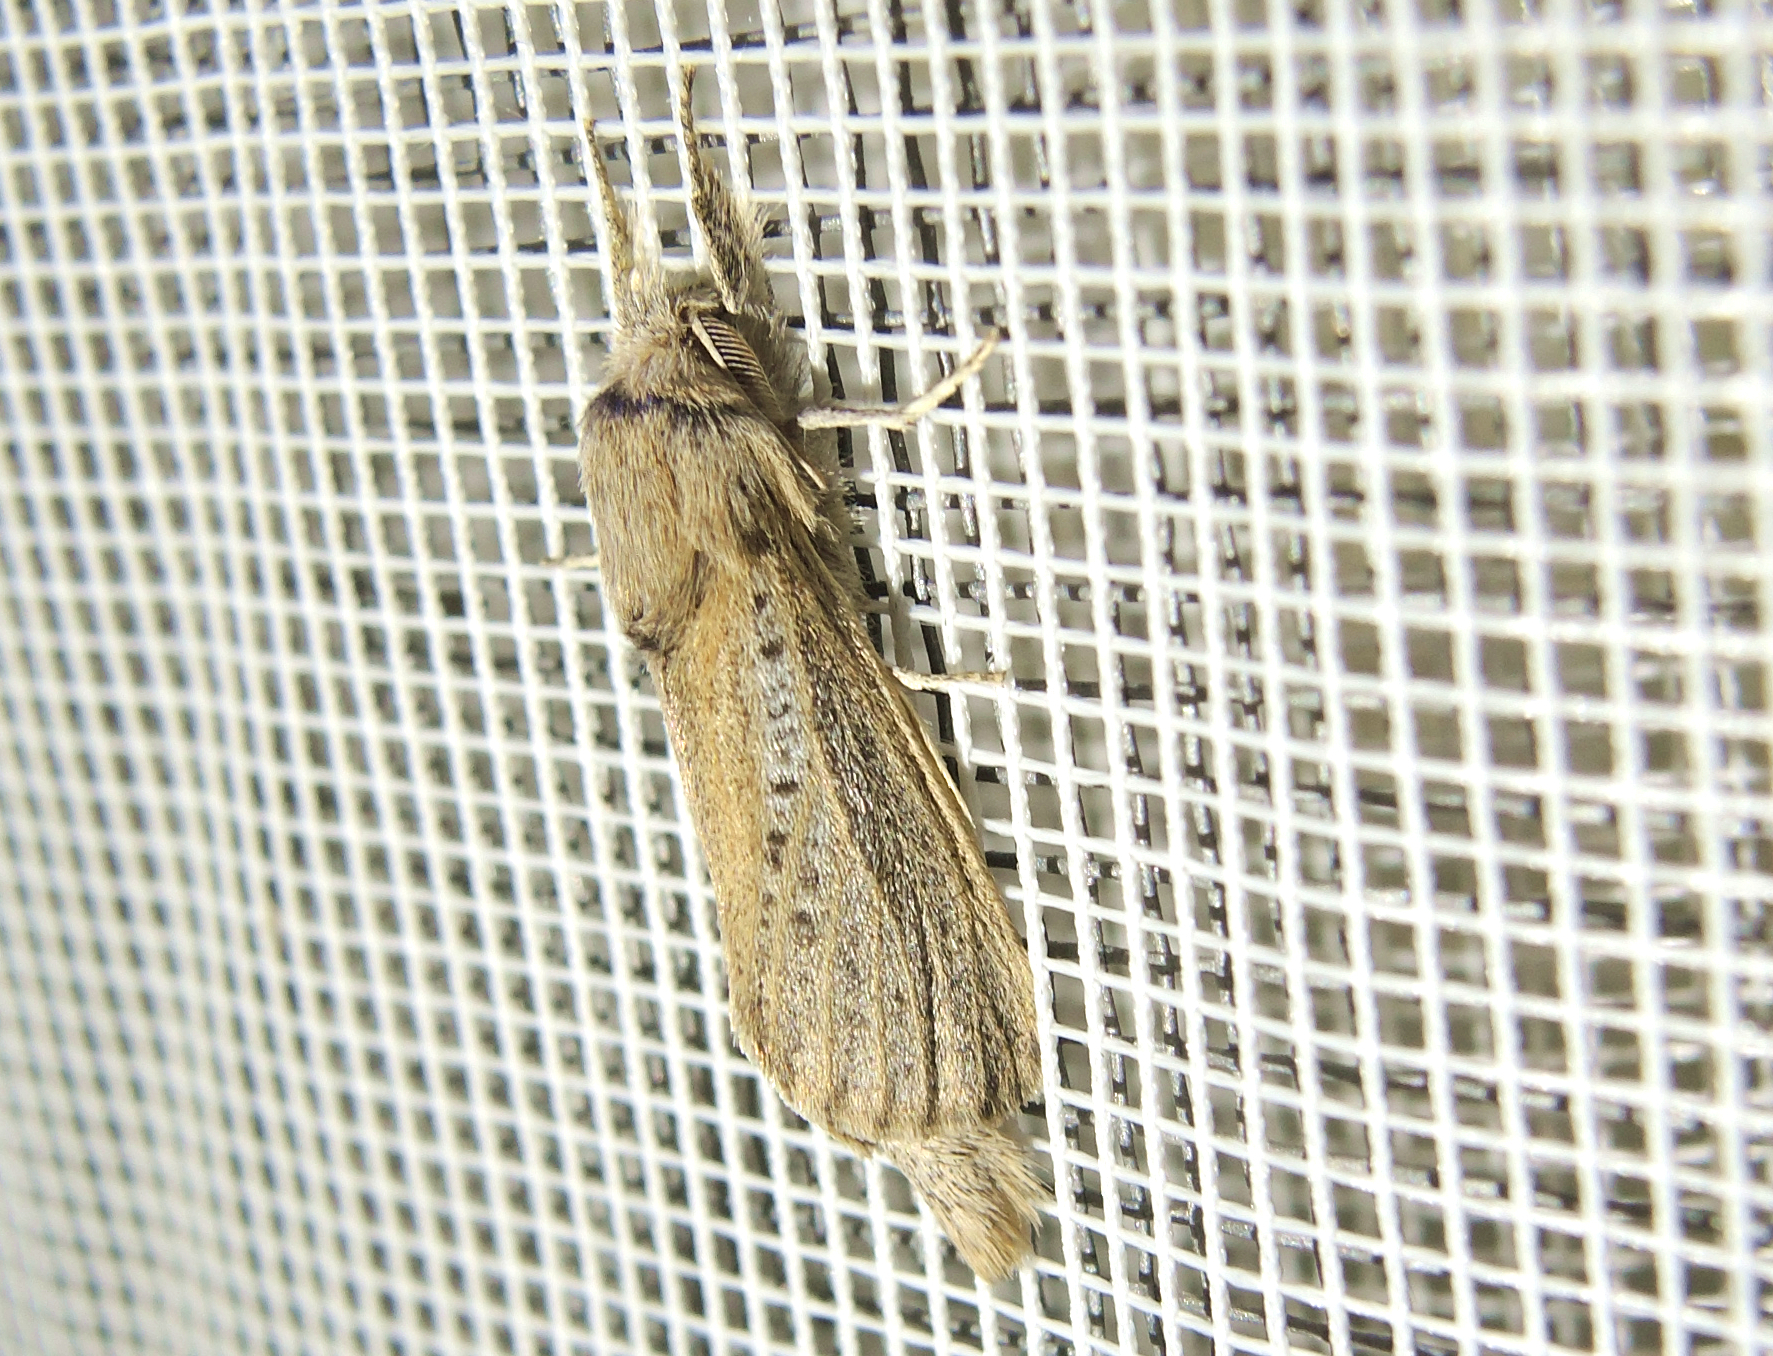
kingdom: Animalia
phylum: Arthropoda
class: Insecta
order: Lepidoptera
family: Cossidae
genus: Phragmataecia
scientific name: Phragmataecia castaneae
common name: Reed leopard
